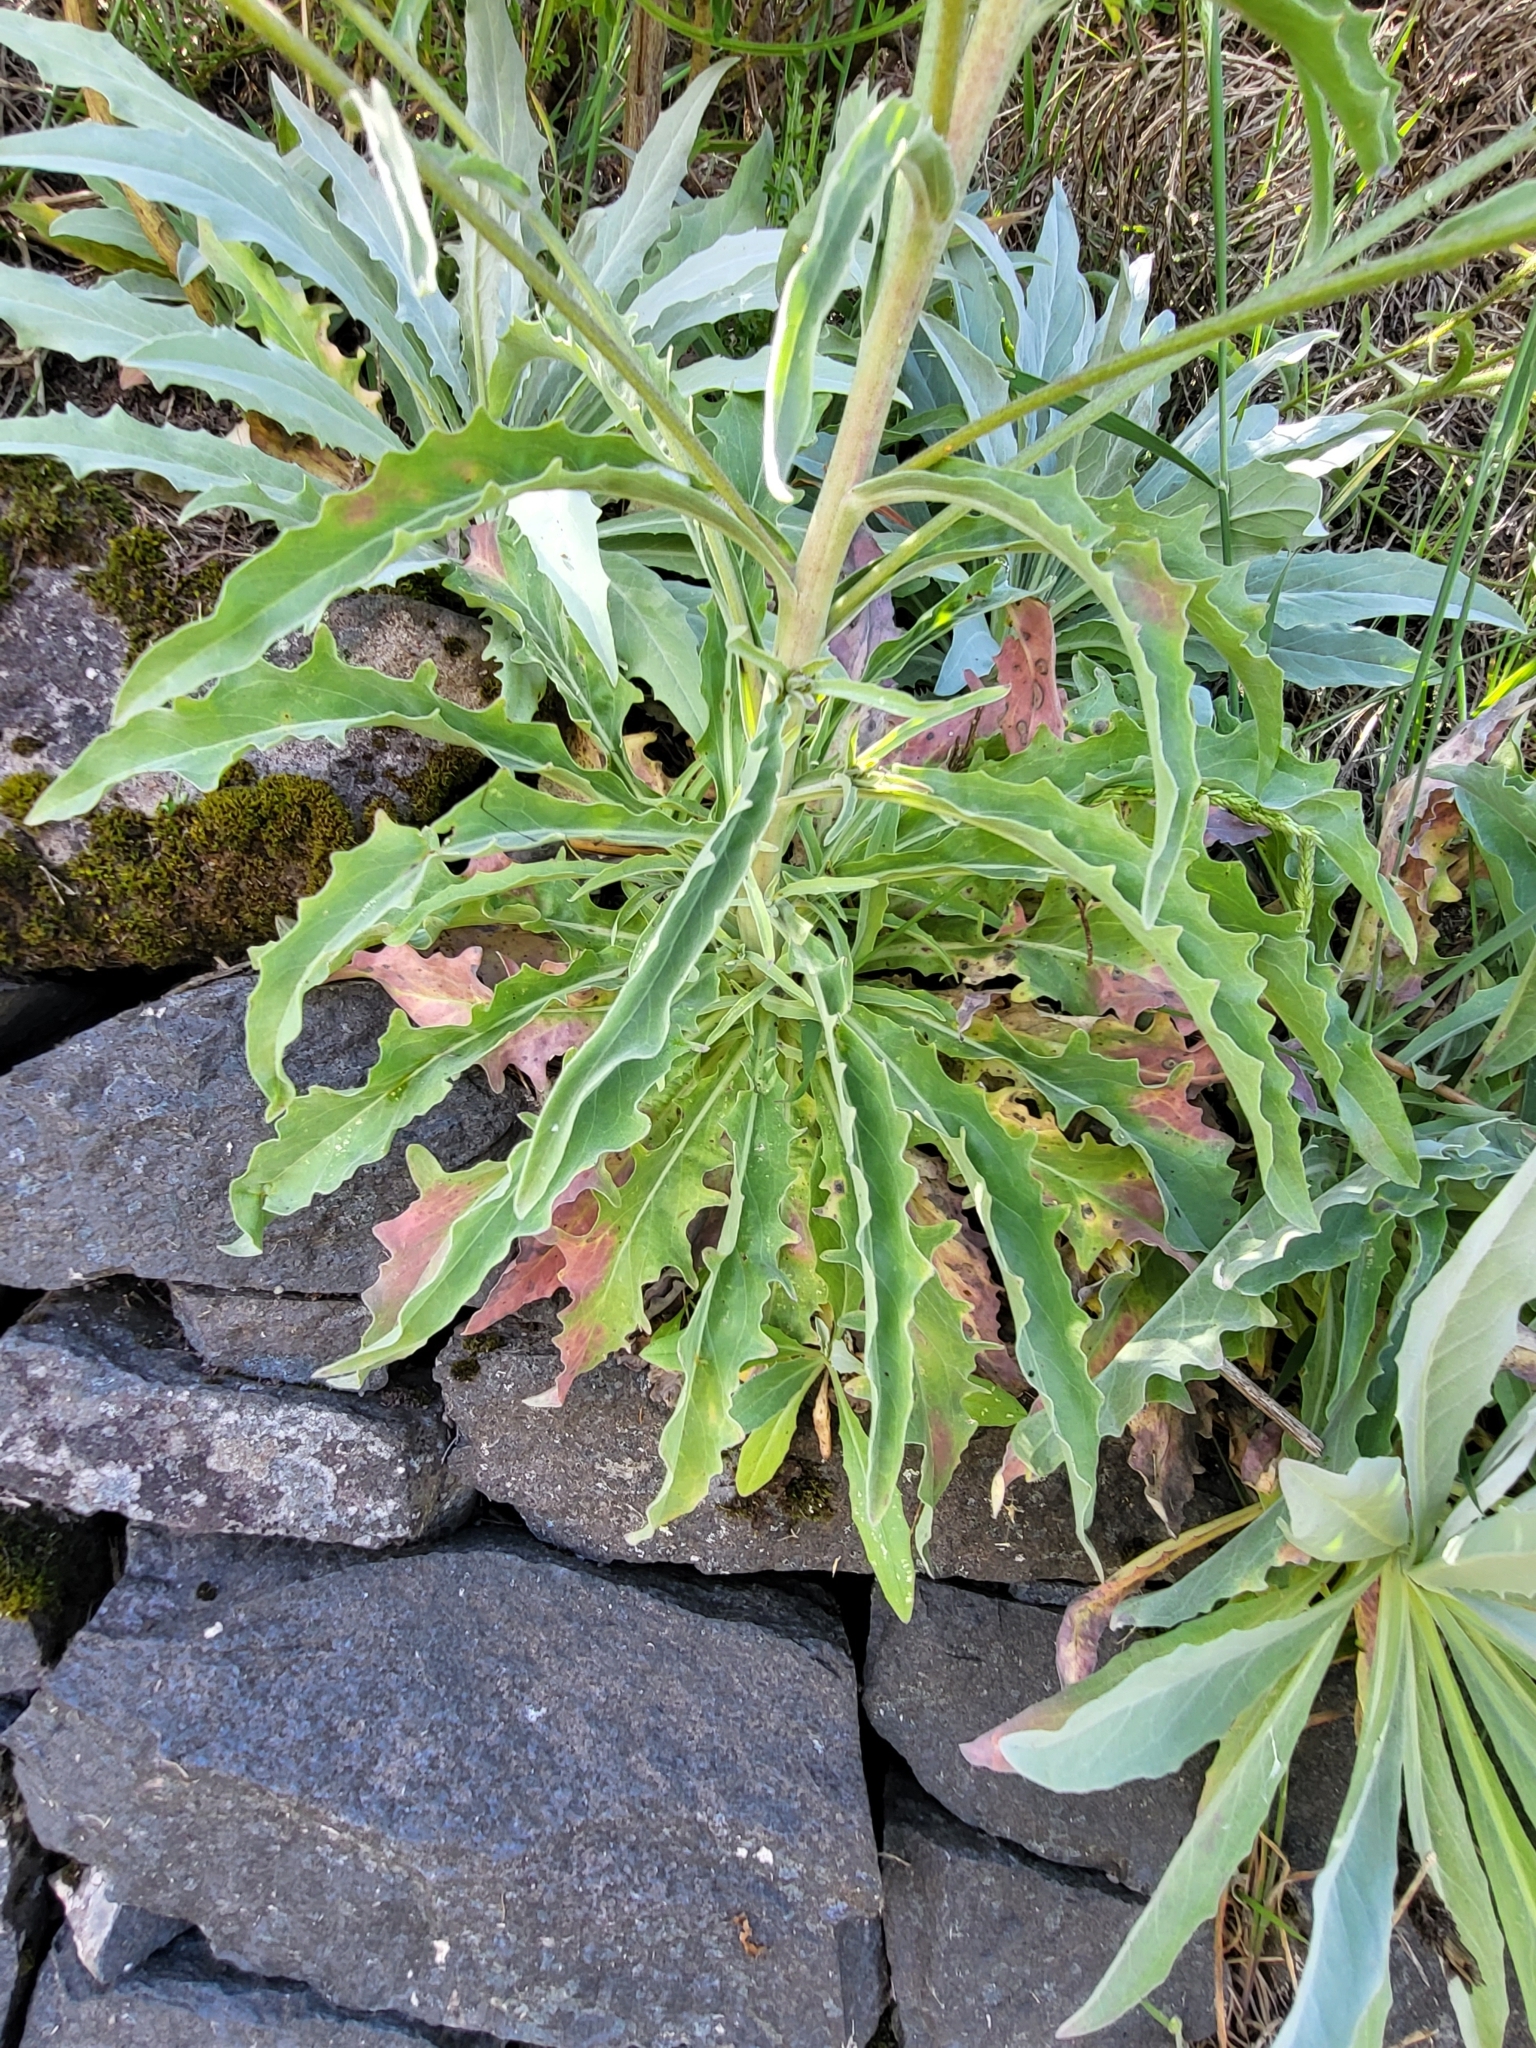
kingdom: Plantae
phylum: Tracheophyta
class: Magnoliopsida
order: Asterales
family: Asteraceae
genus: Andryala
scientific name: Andryala glandulosa
